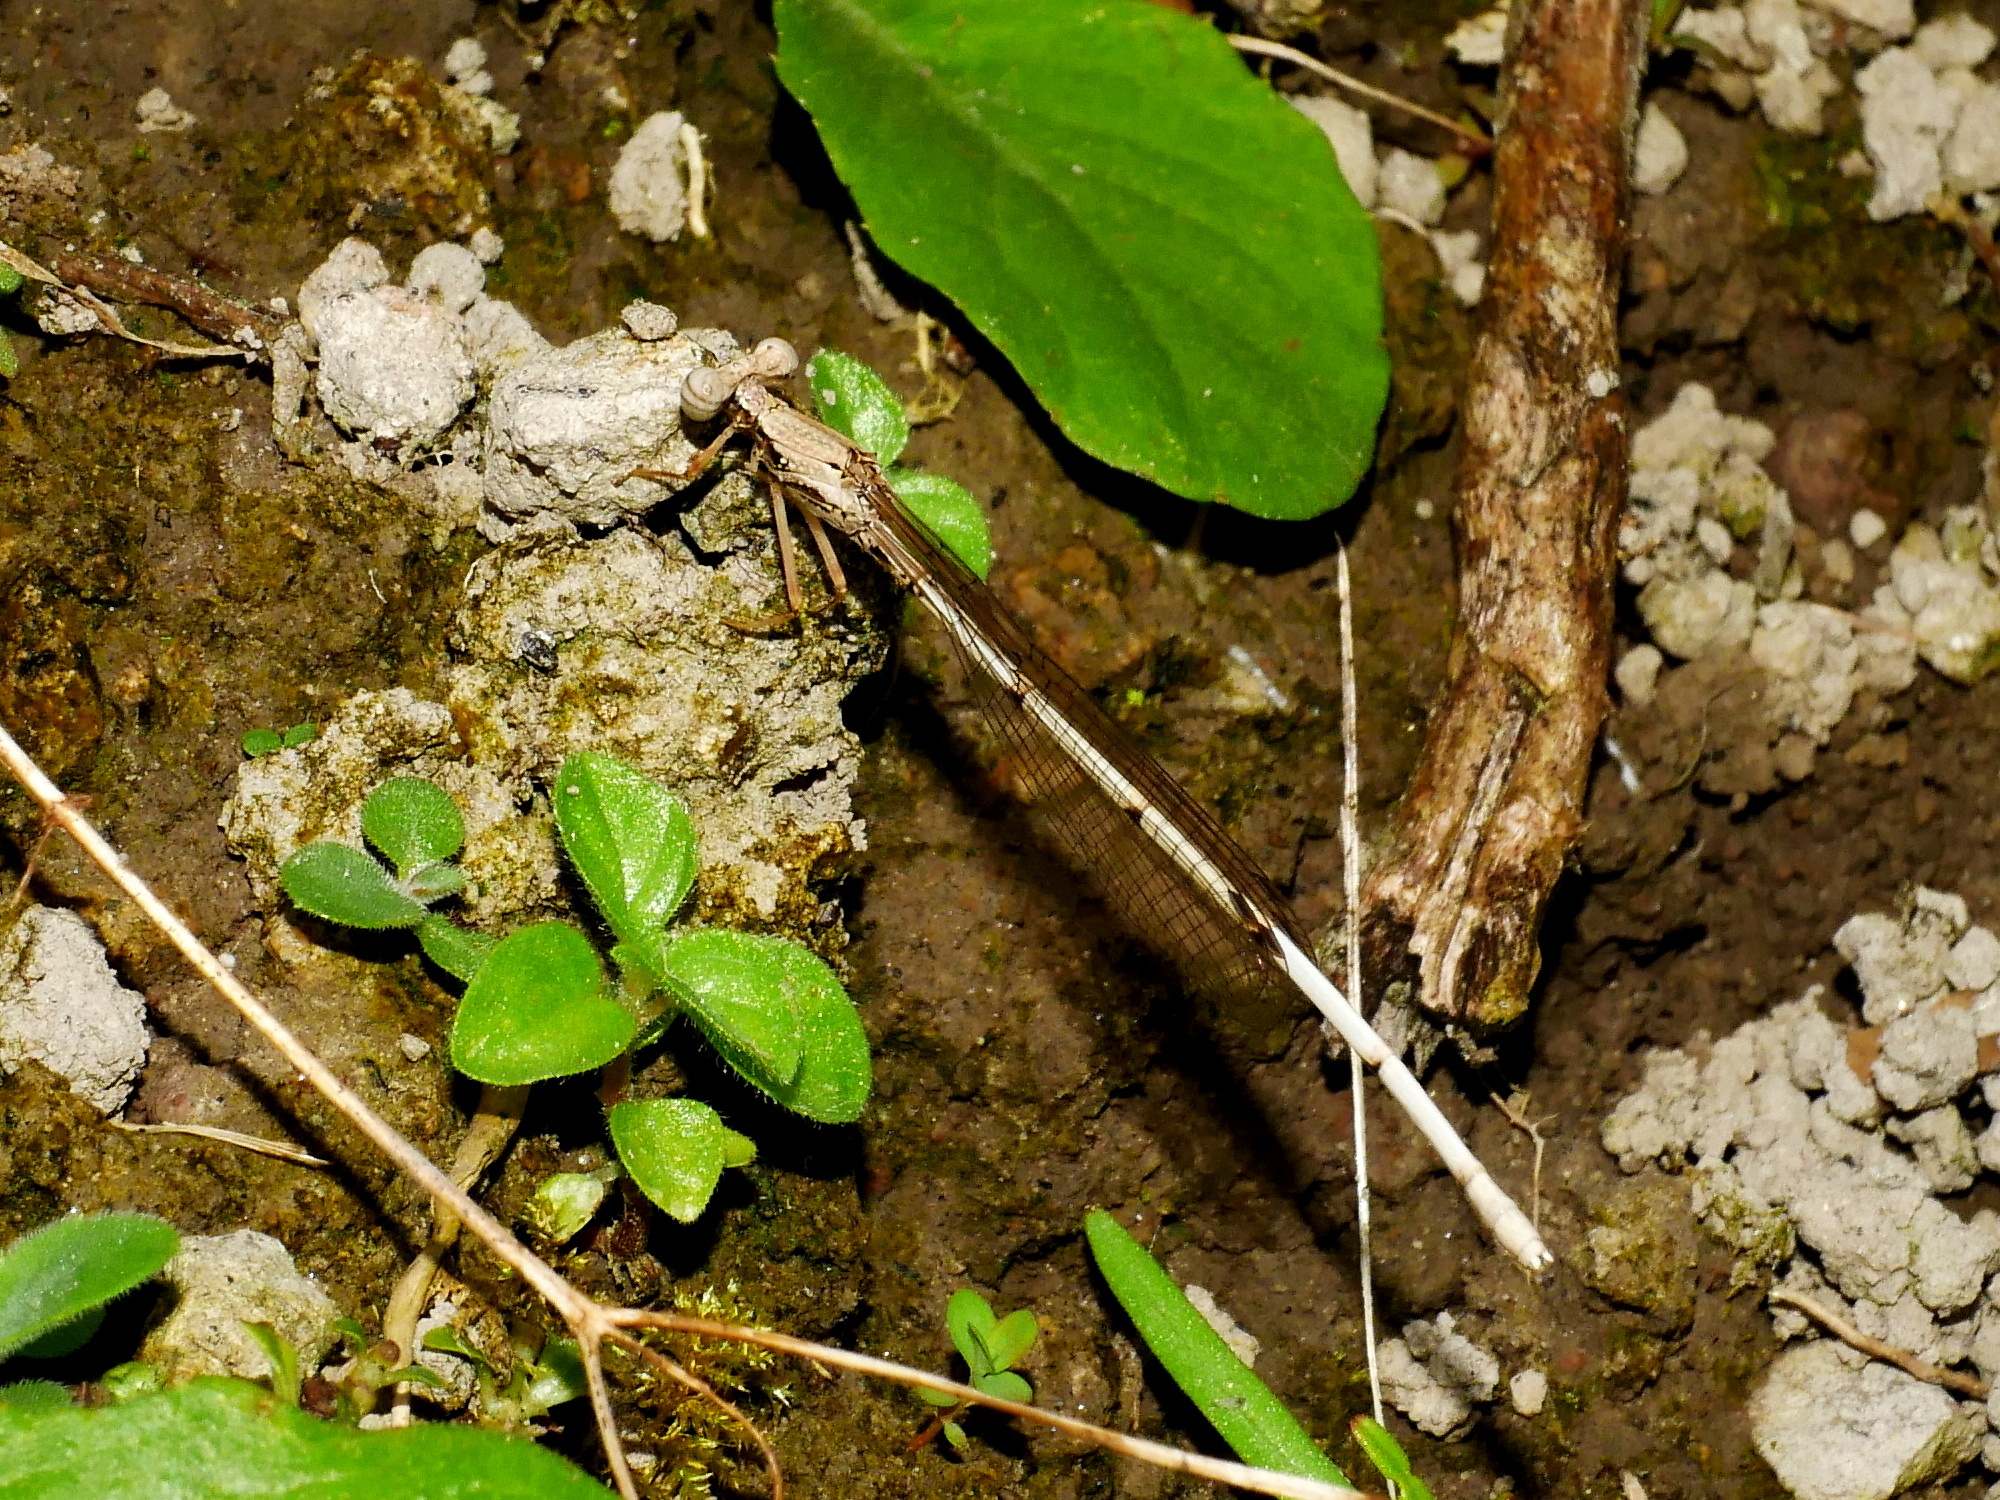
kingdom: Animalia
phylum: Arthropoda
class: Insecta
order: Odonata
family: Platycnemididae
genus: Copera
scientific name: Copera marginipes
